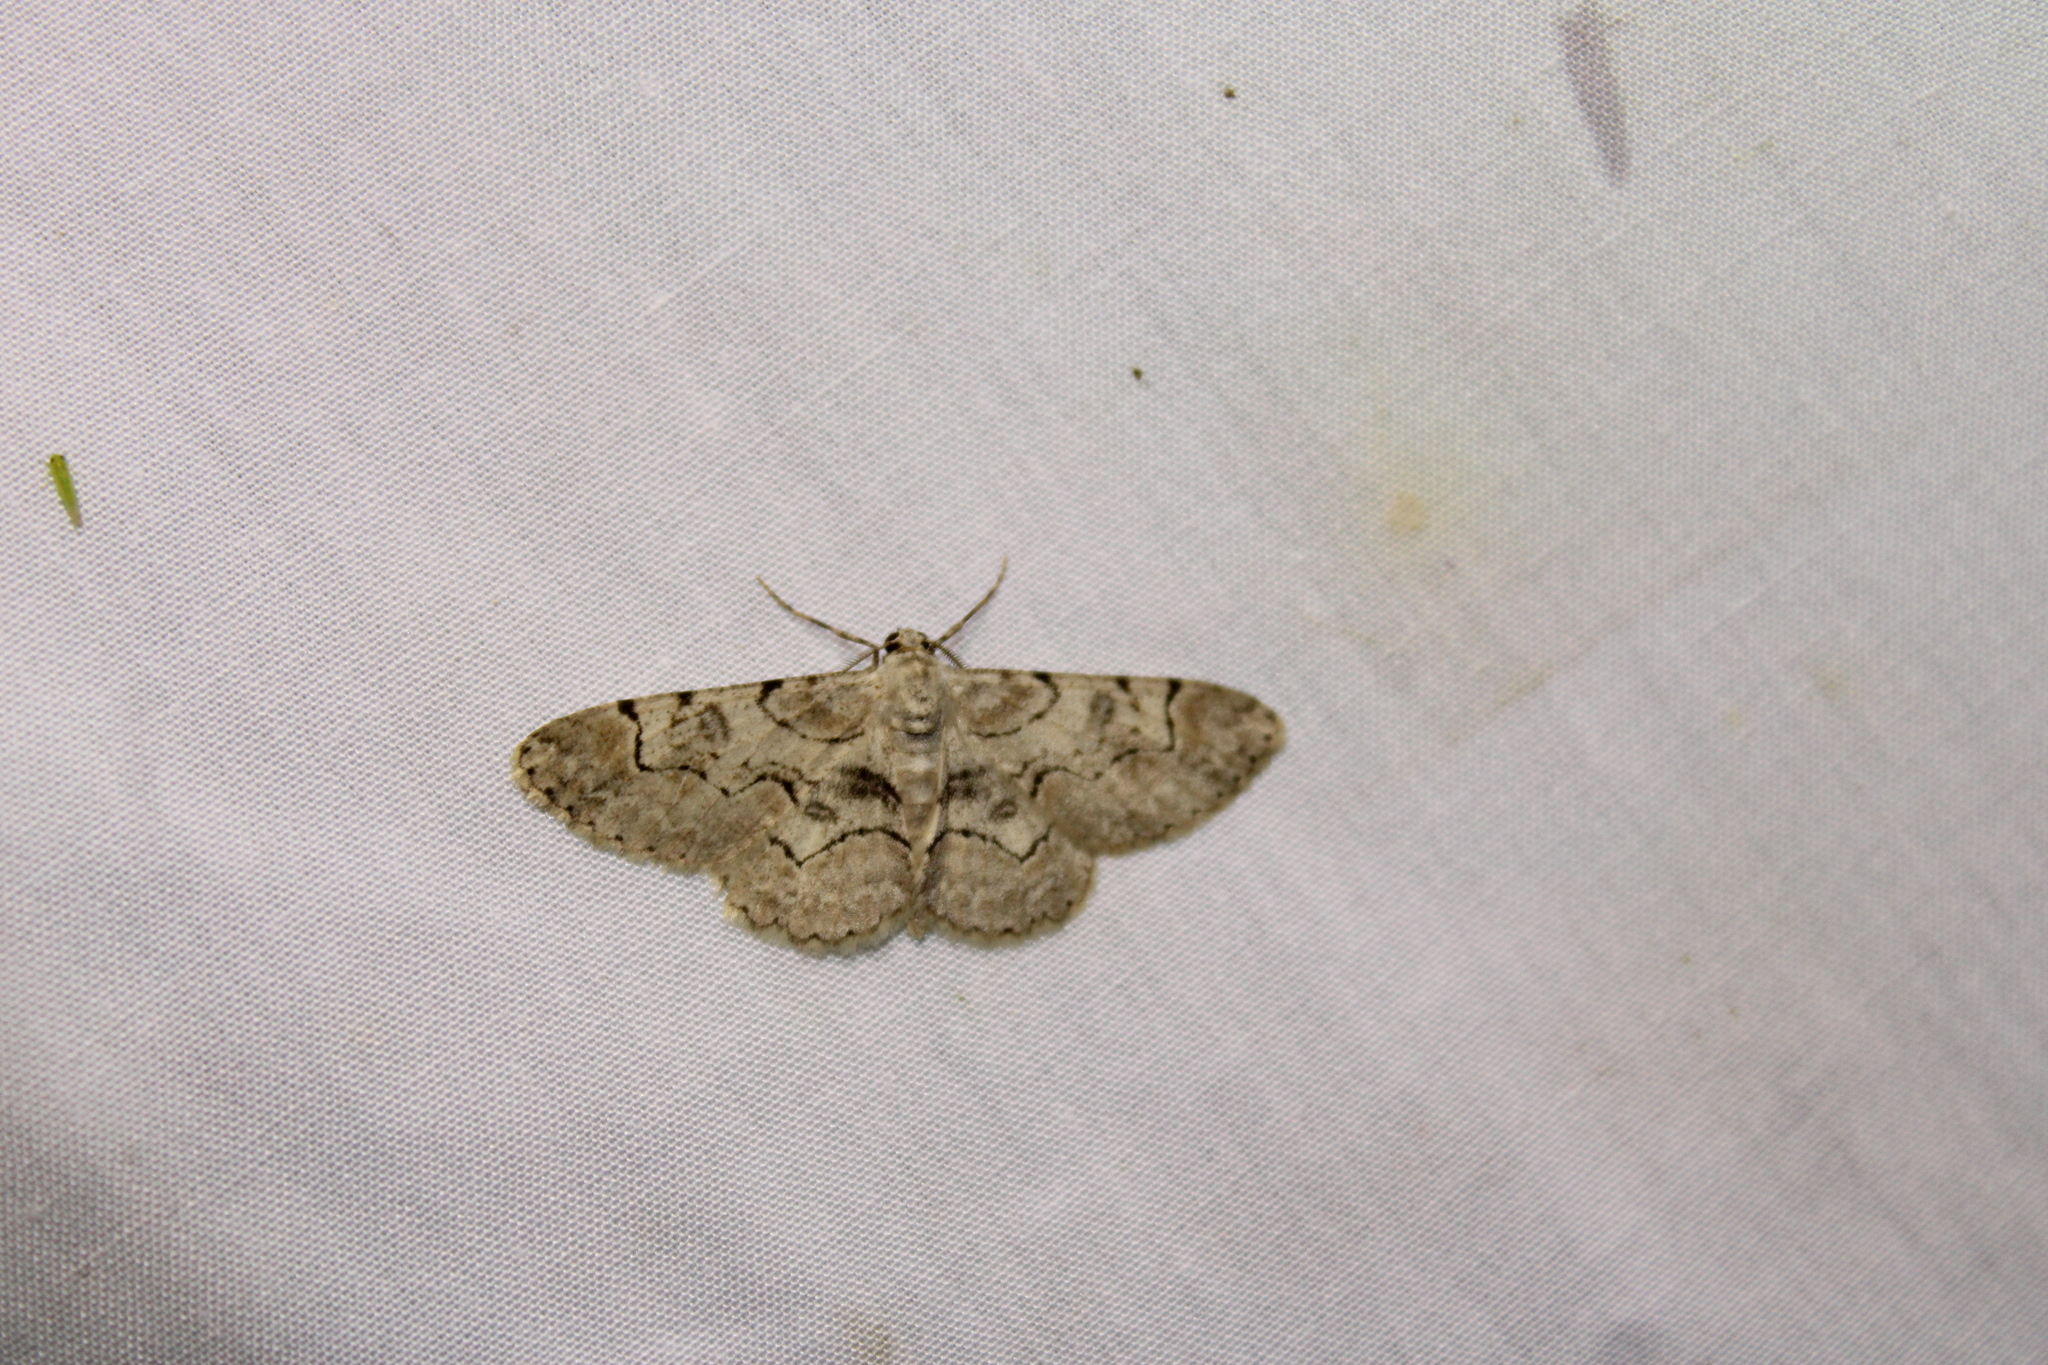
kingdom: Animalia
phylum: Arthropoda
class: Insecta
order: Lepidoptera
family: Geometridae
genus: Iridopsis
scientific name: Iridopsis larvaria
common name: Bent-line gray
